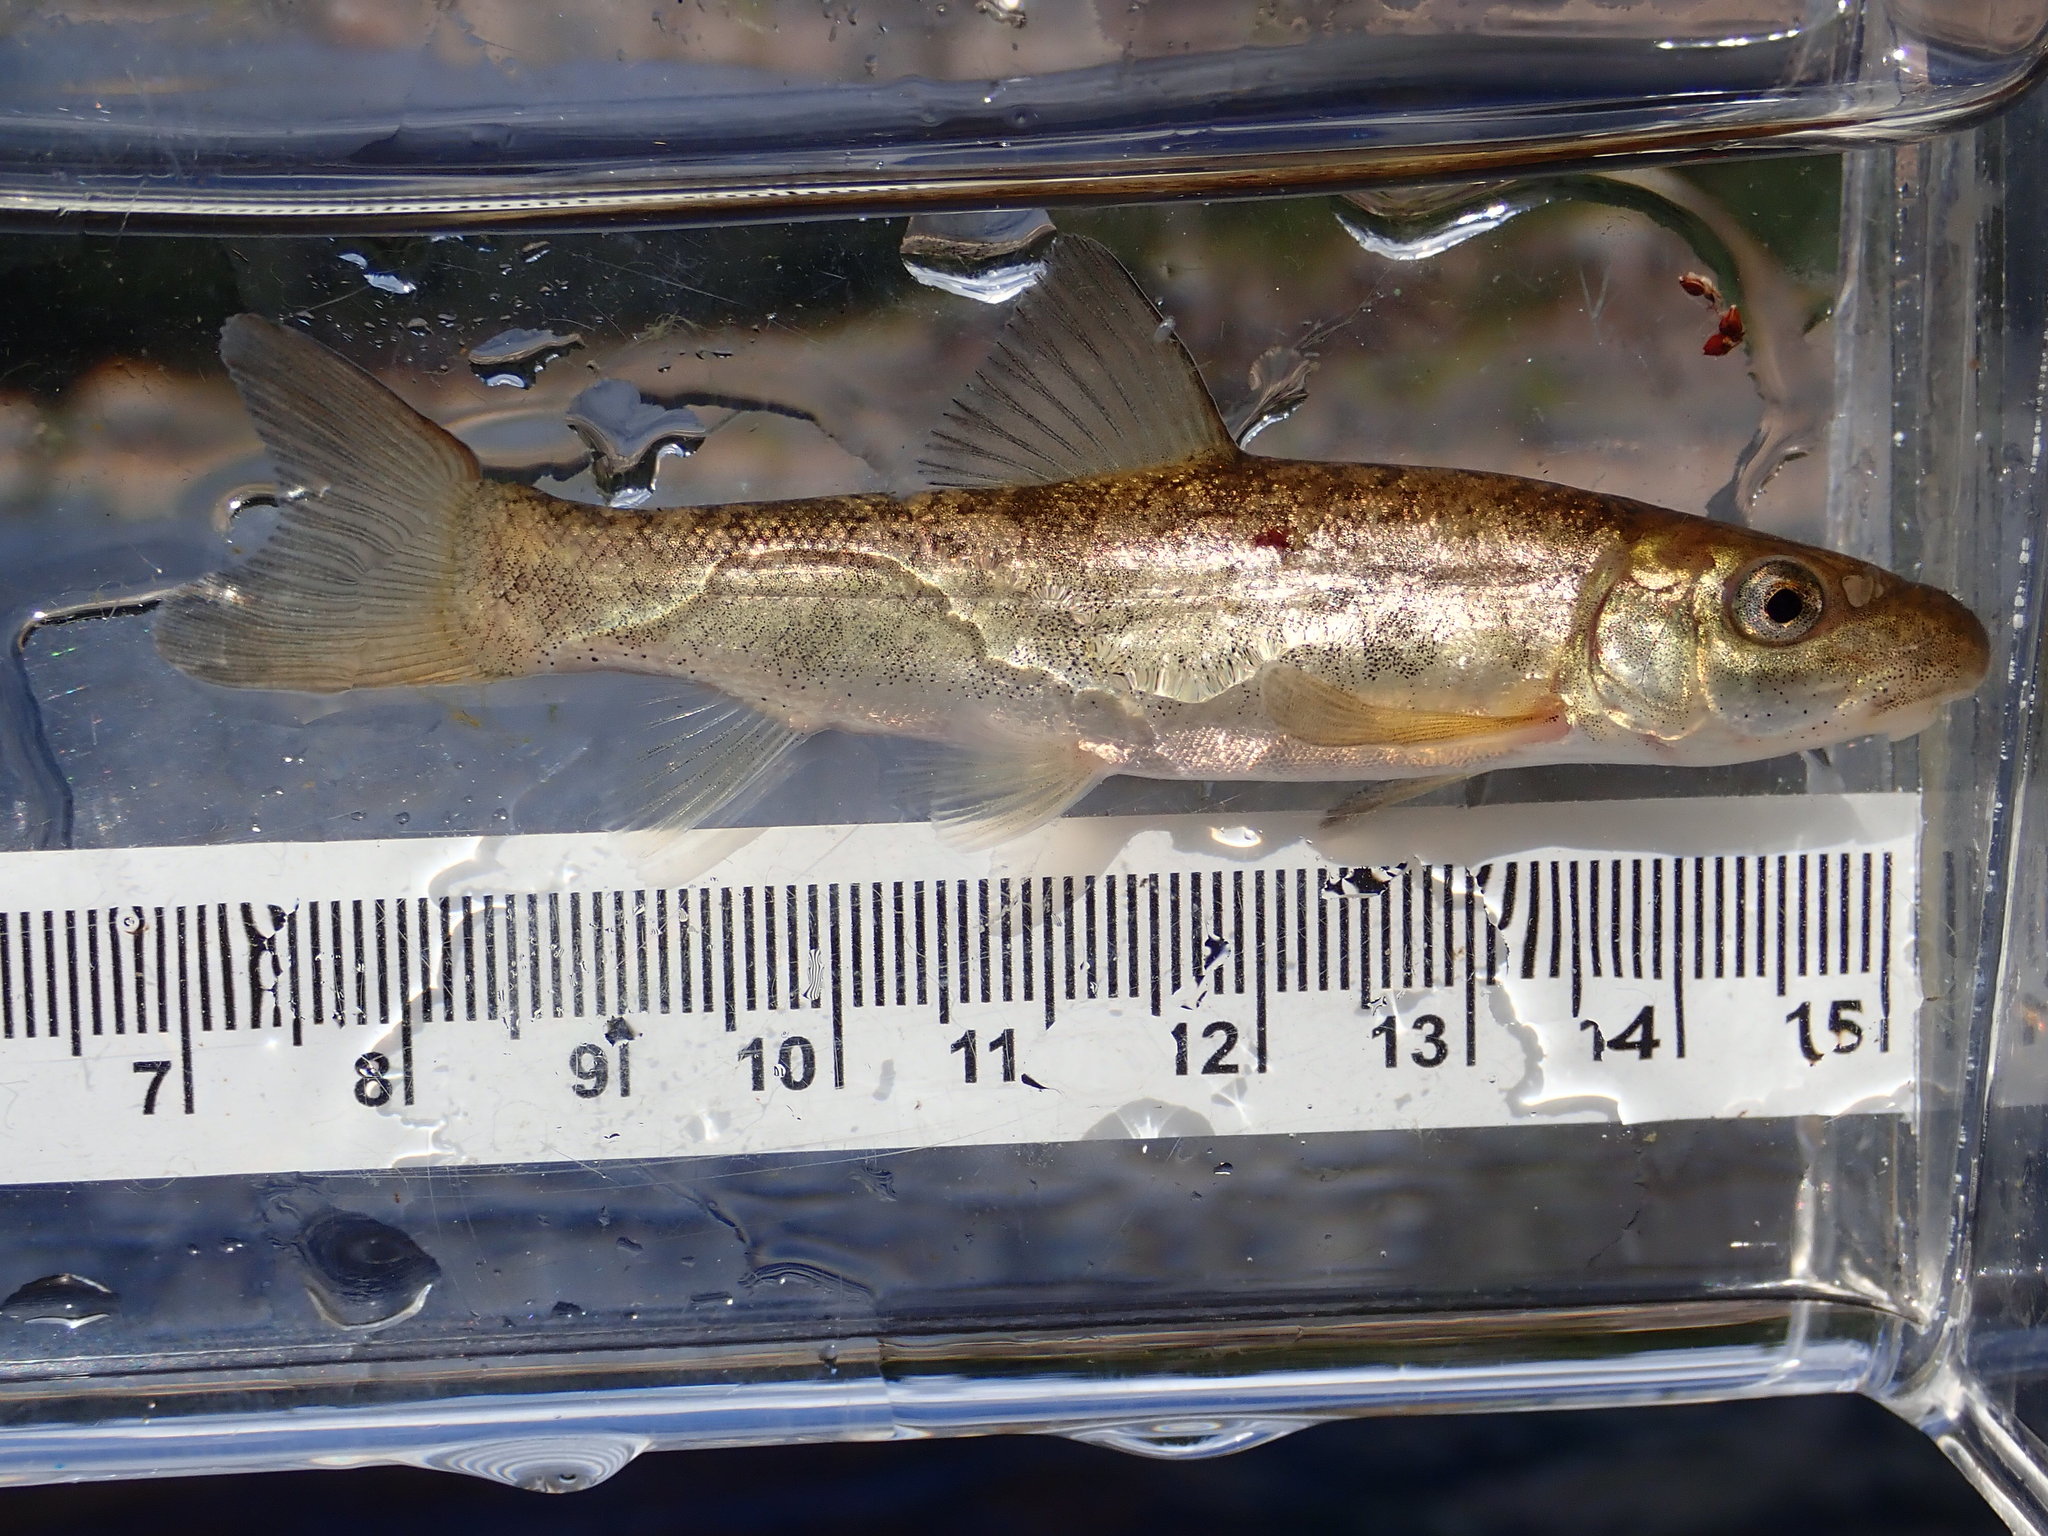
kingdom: Animalia
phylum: Chordata
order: Cypriniformes
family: Catostomidae
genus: Catostomus
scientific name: Catostomus catostomus
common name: Longnose sucker
